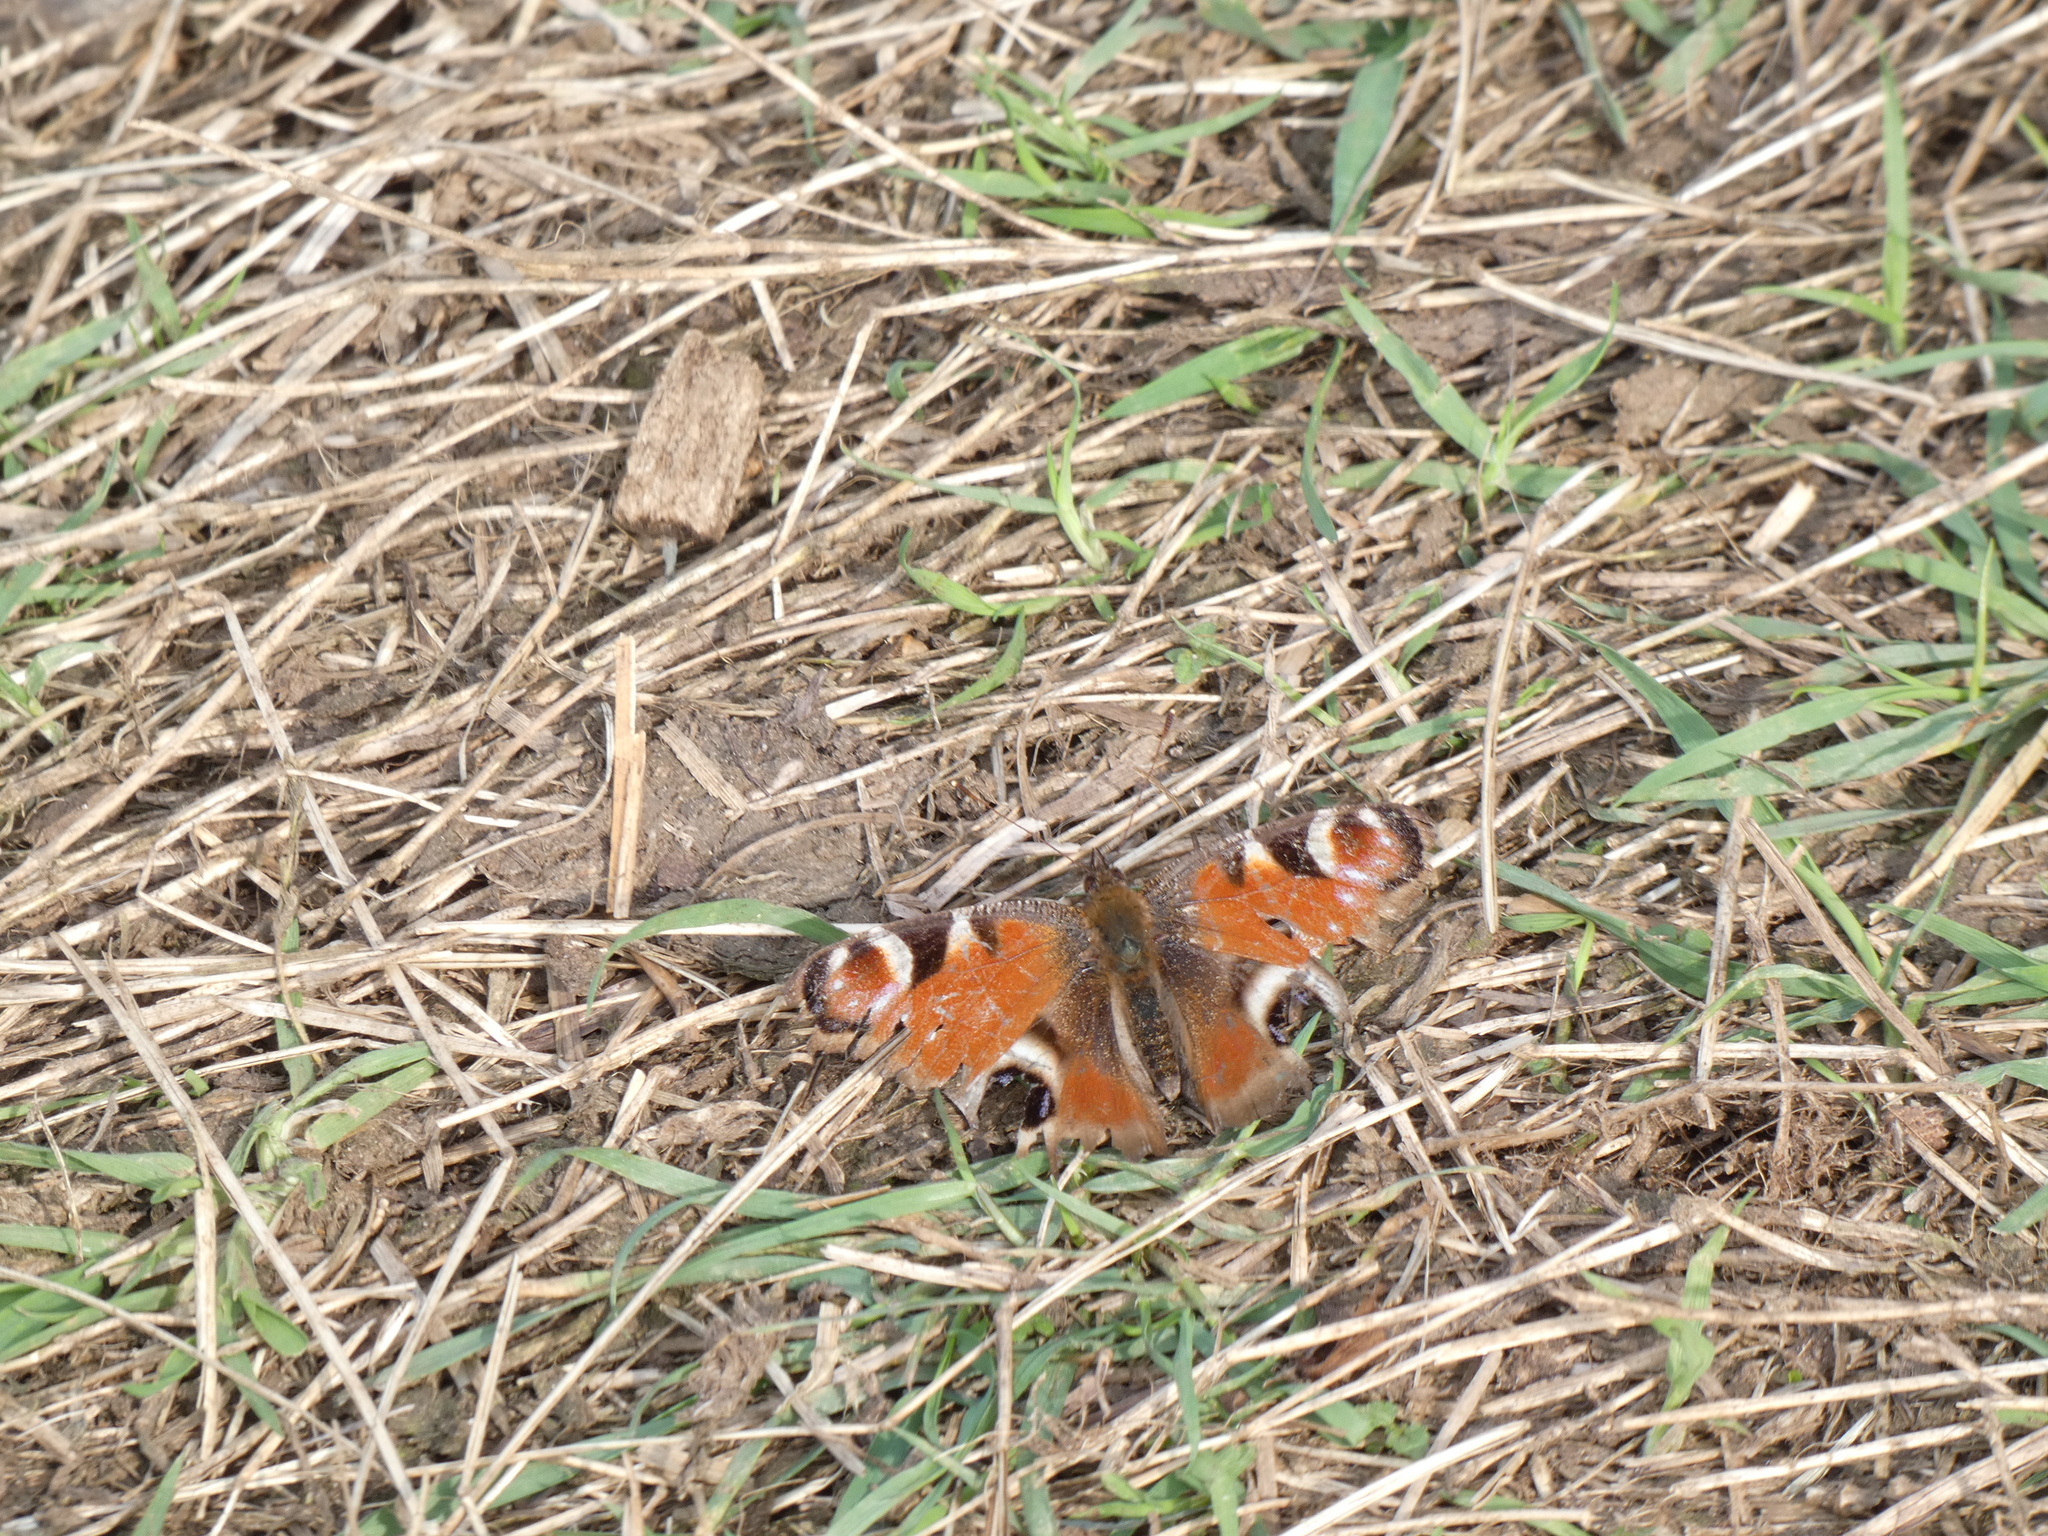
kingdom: Animalia
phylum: Arthropoda
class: Insecta
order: Lepidoptera
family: Nymphalidae
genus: Aglais
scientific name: Aglais io
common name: Peacock
